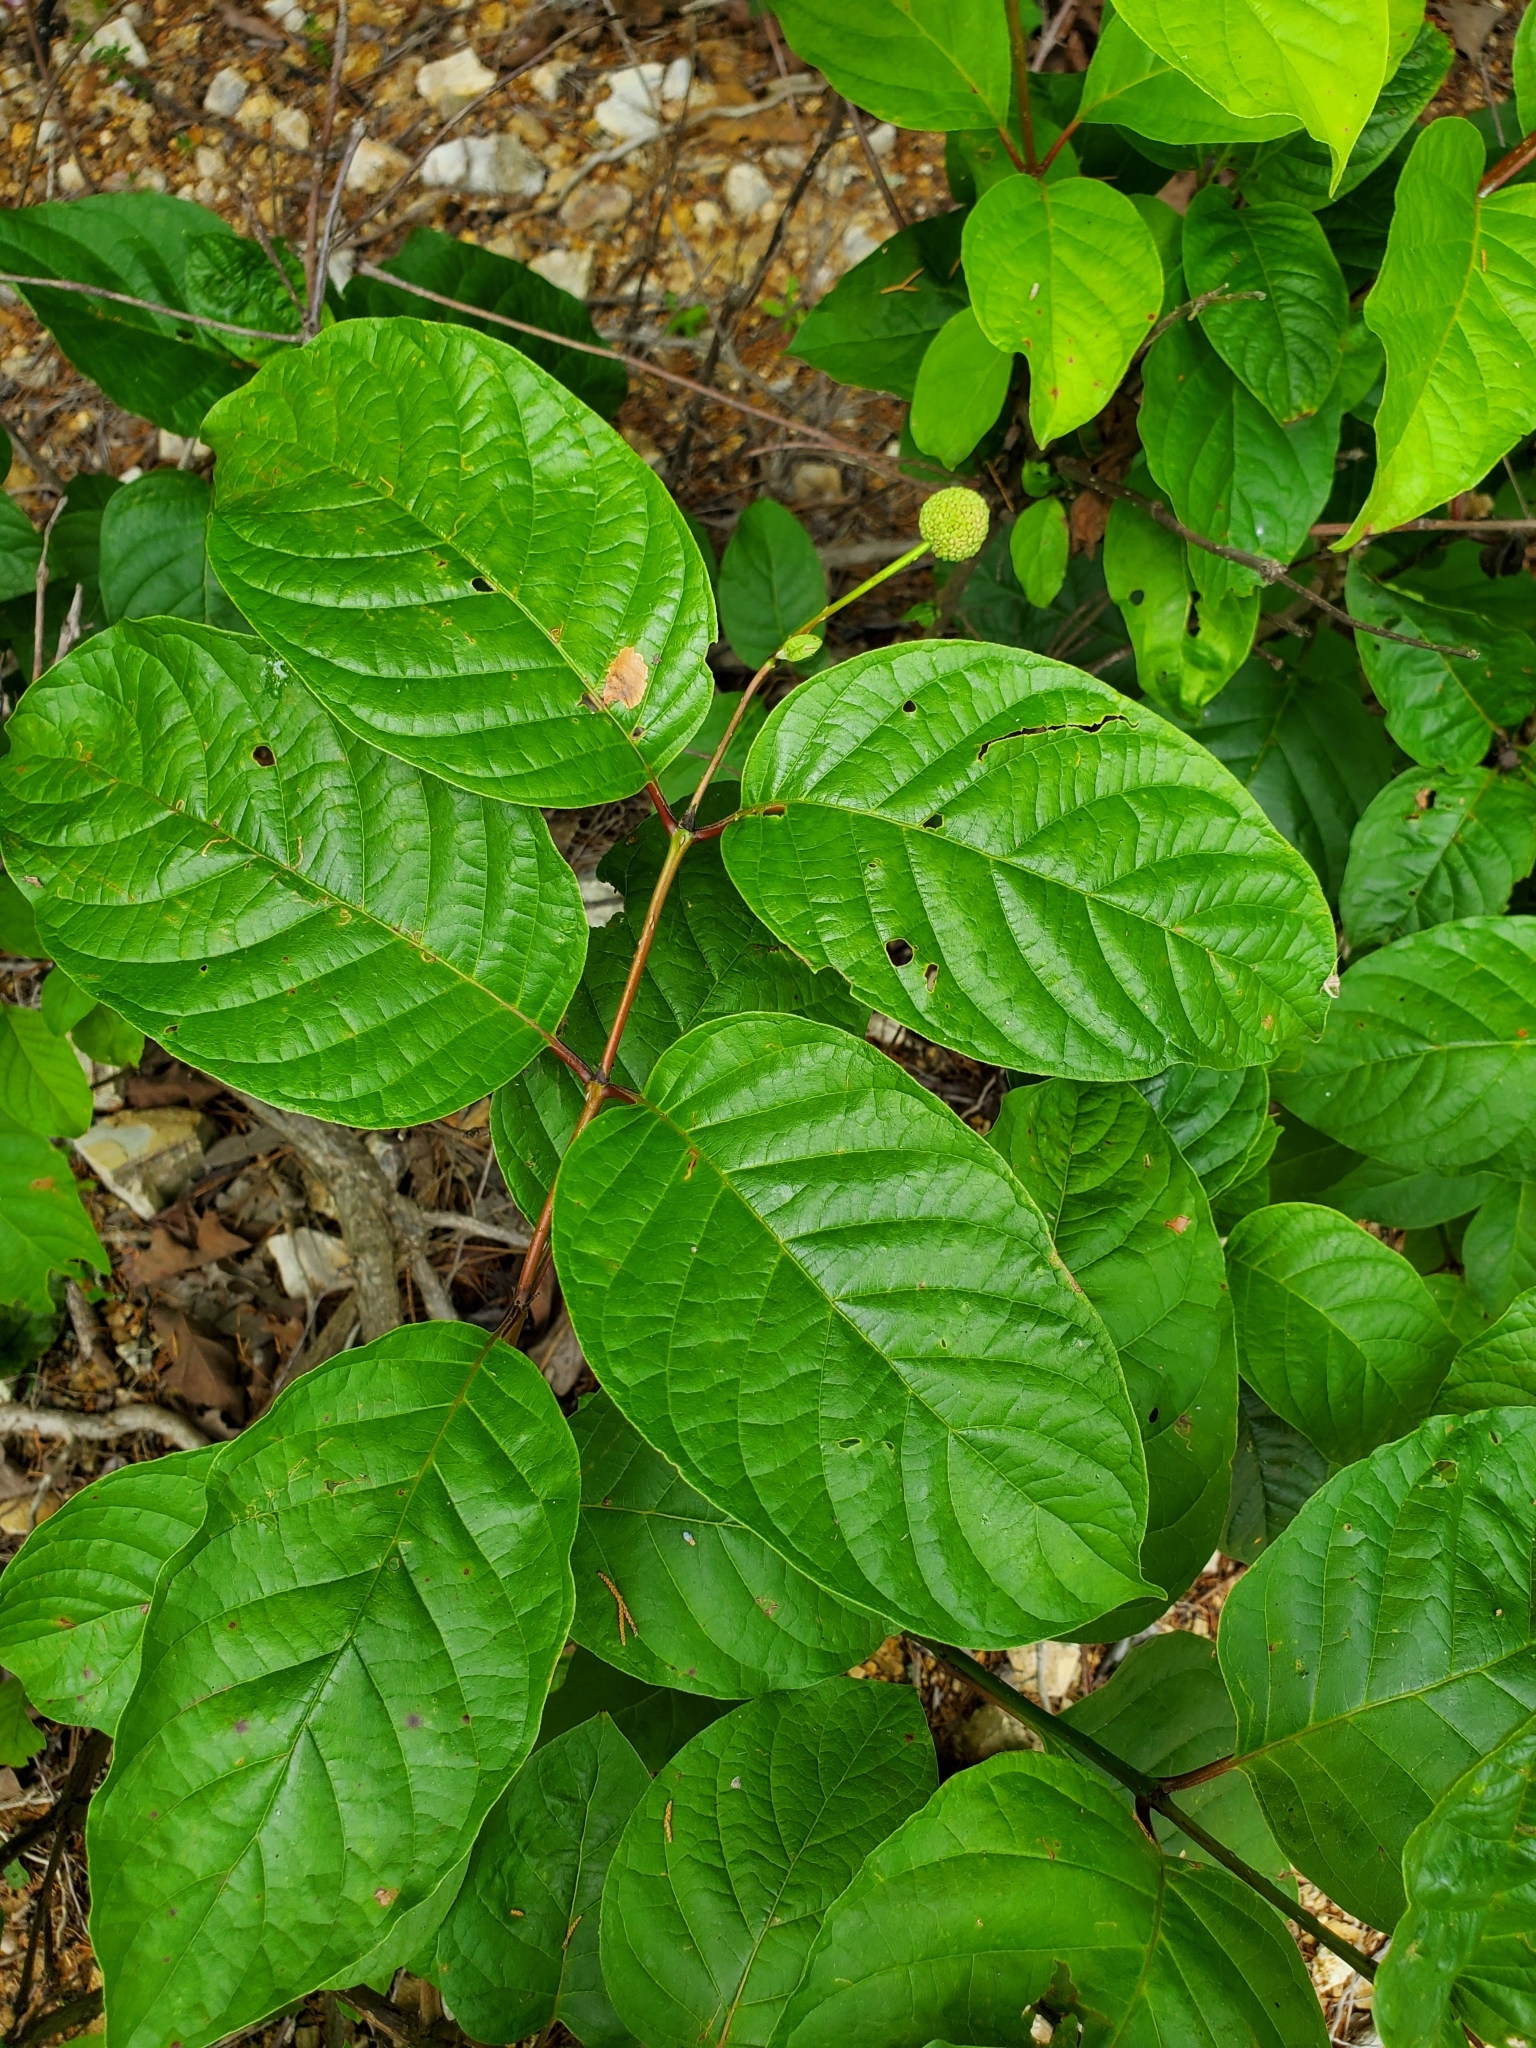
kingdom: Plantae
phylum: Tracheophyta
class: Magnoliopsida
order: Gentianales
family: Rubiaceae
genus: Cephalanthus
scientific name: Cephalanthus occidentalis
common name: Button-willow
